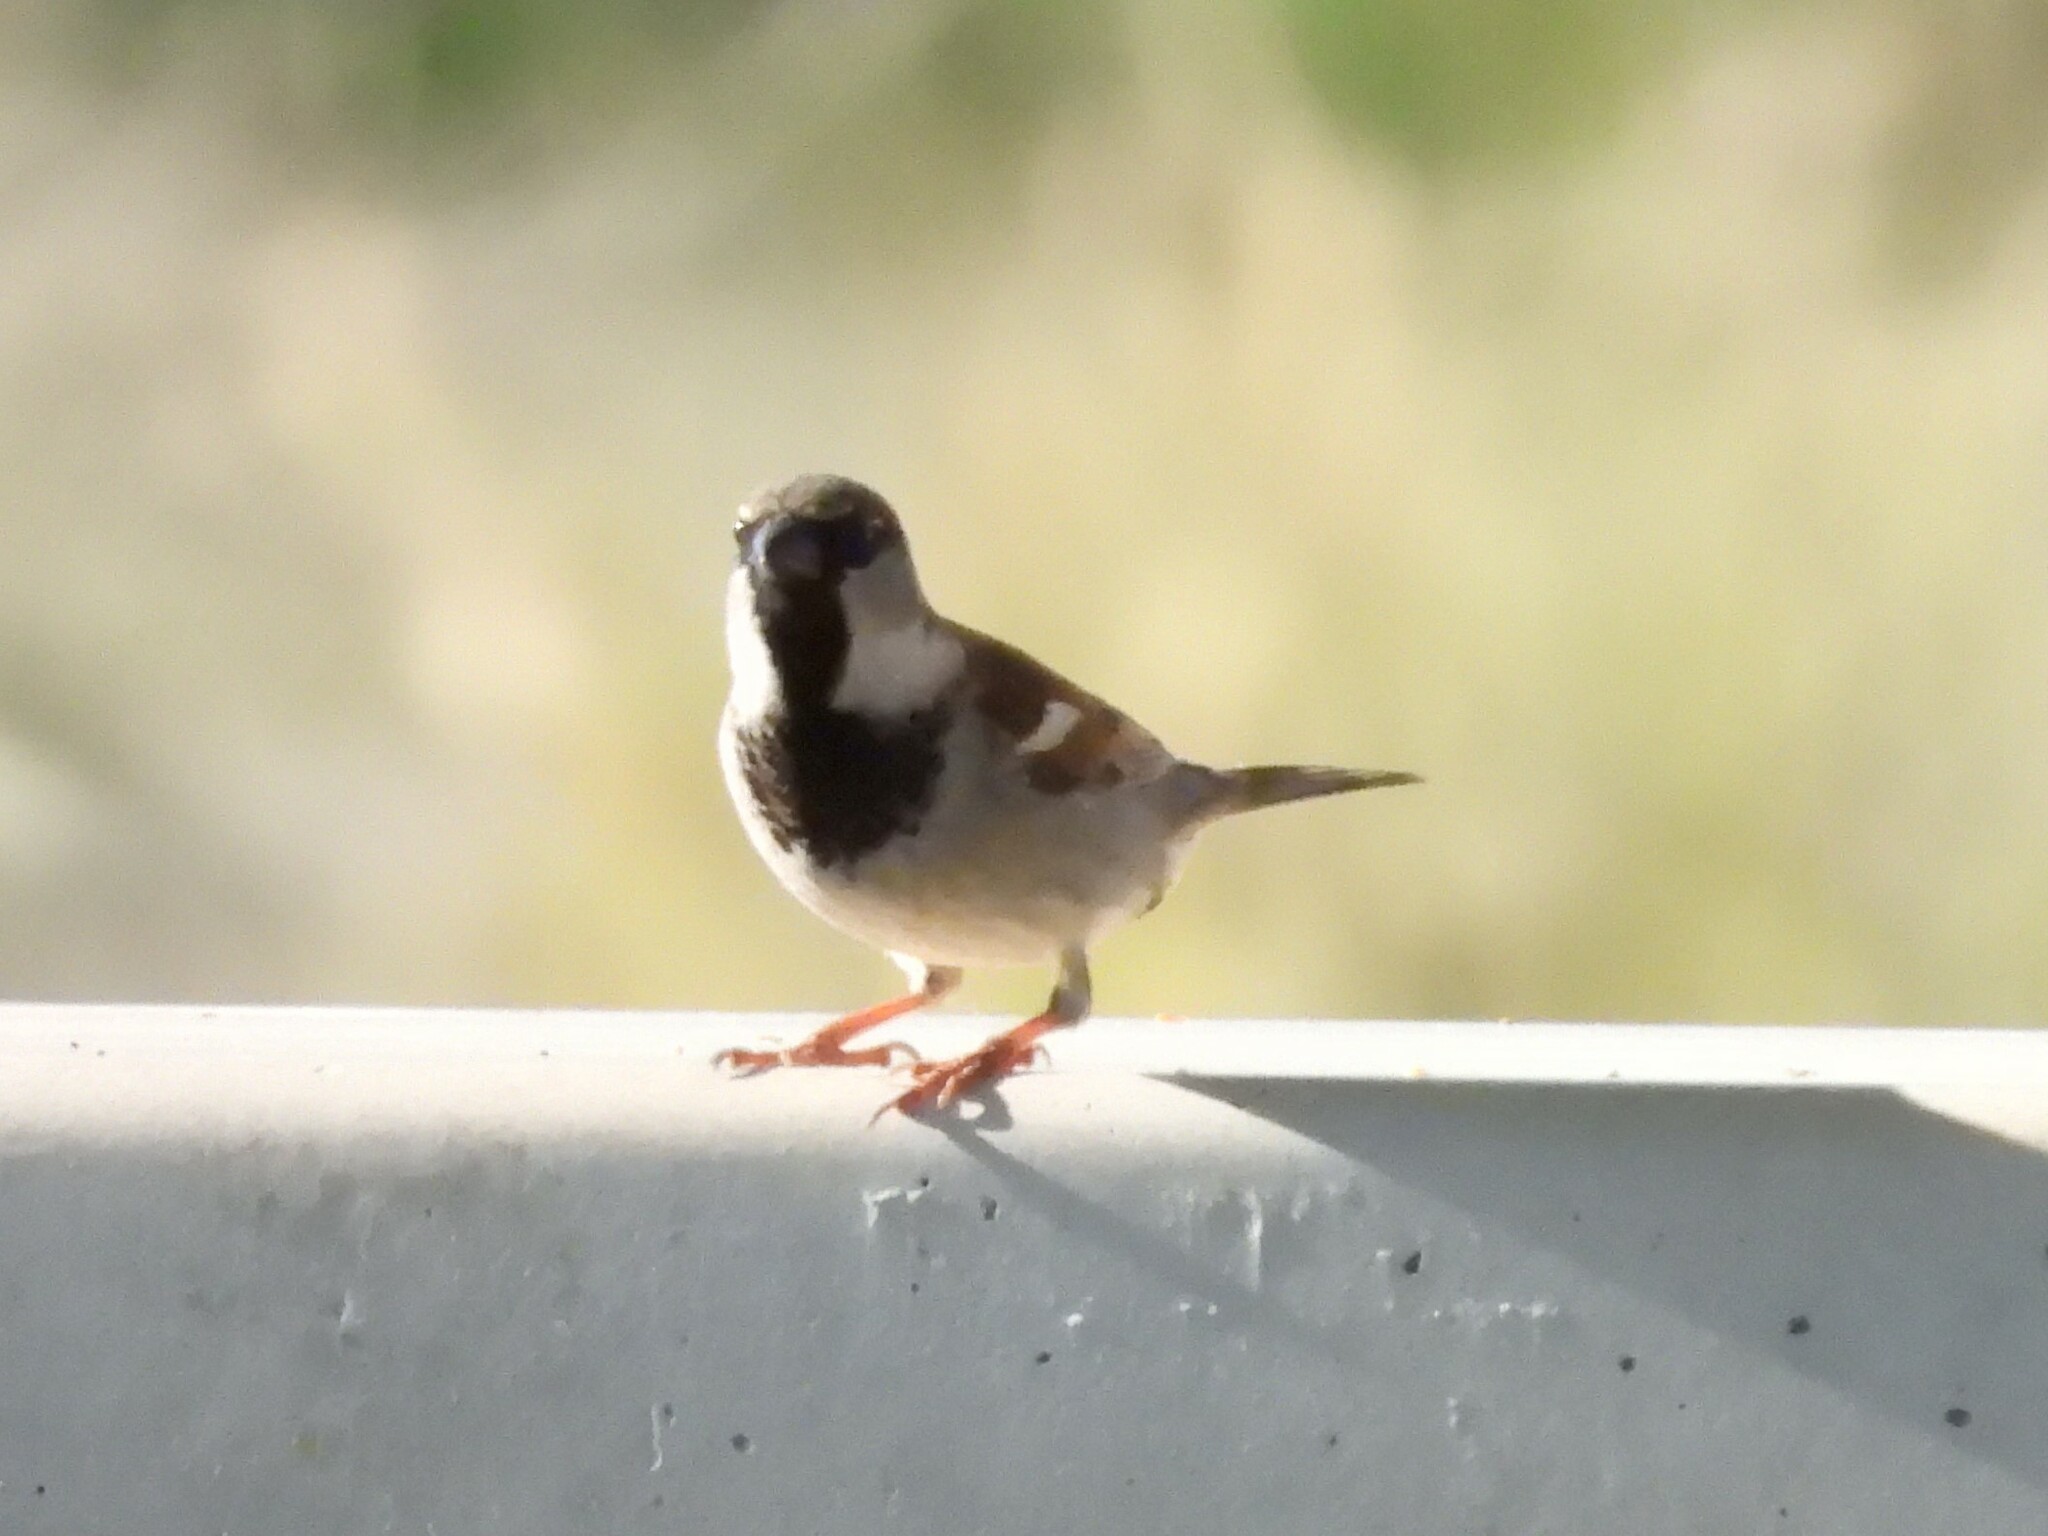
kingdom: Animalia
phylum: Chordata
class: Aves
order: Passeriformes
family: Passeridae
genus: Passer
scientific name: Passer domesticus
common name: House sparrow
